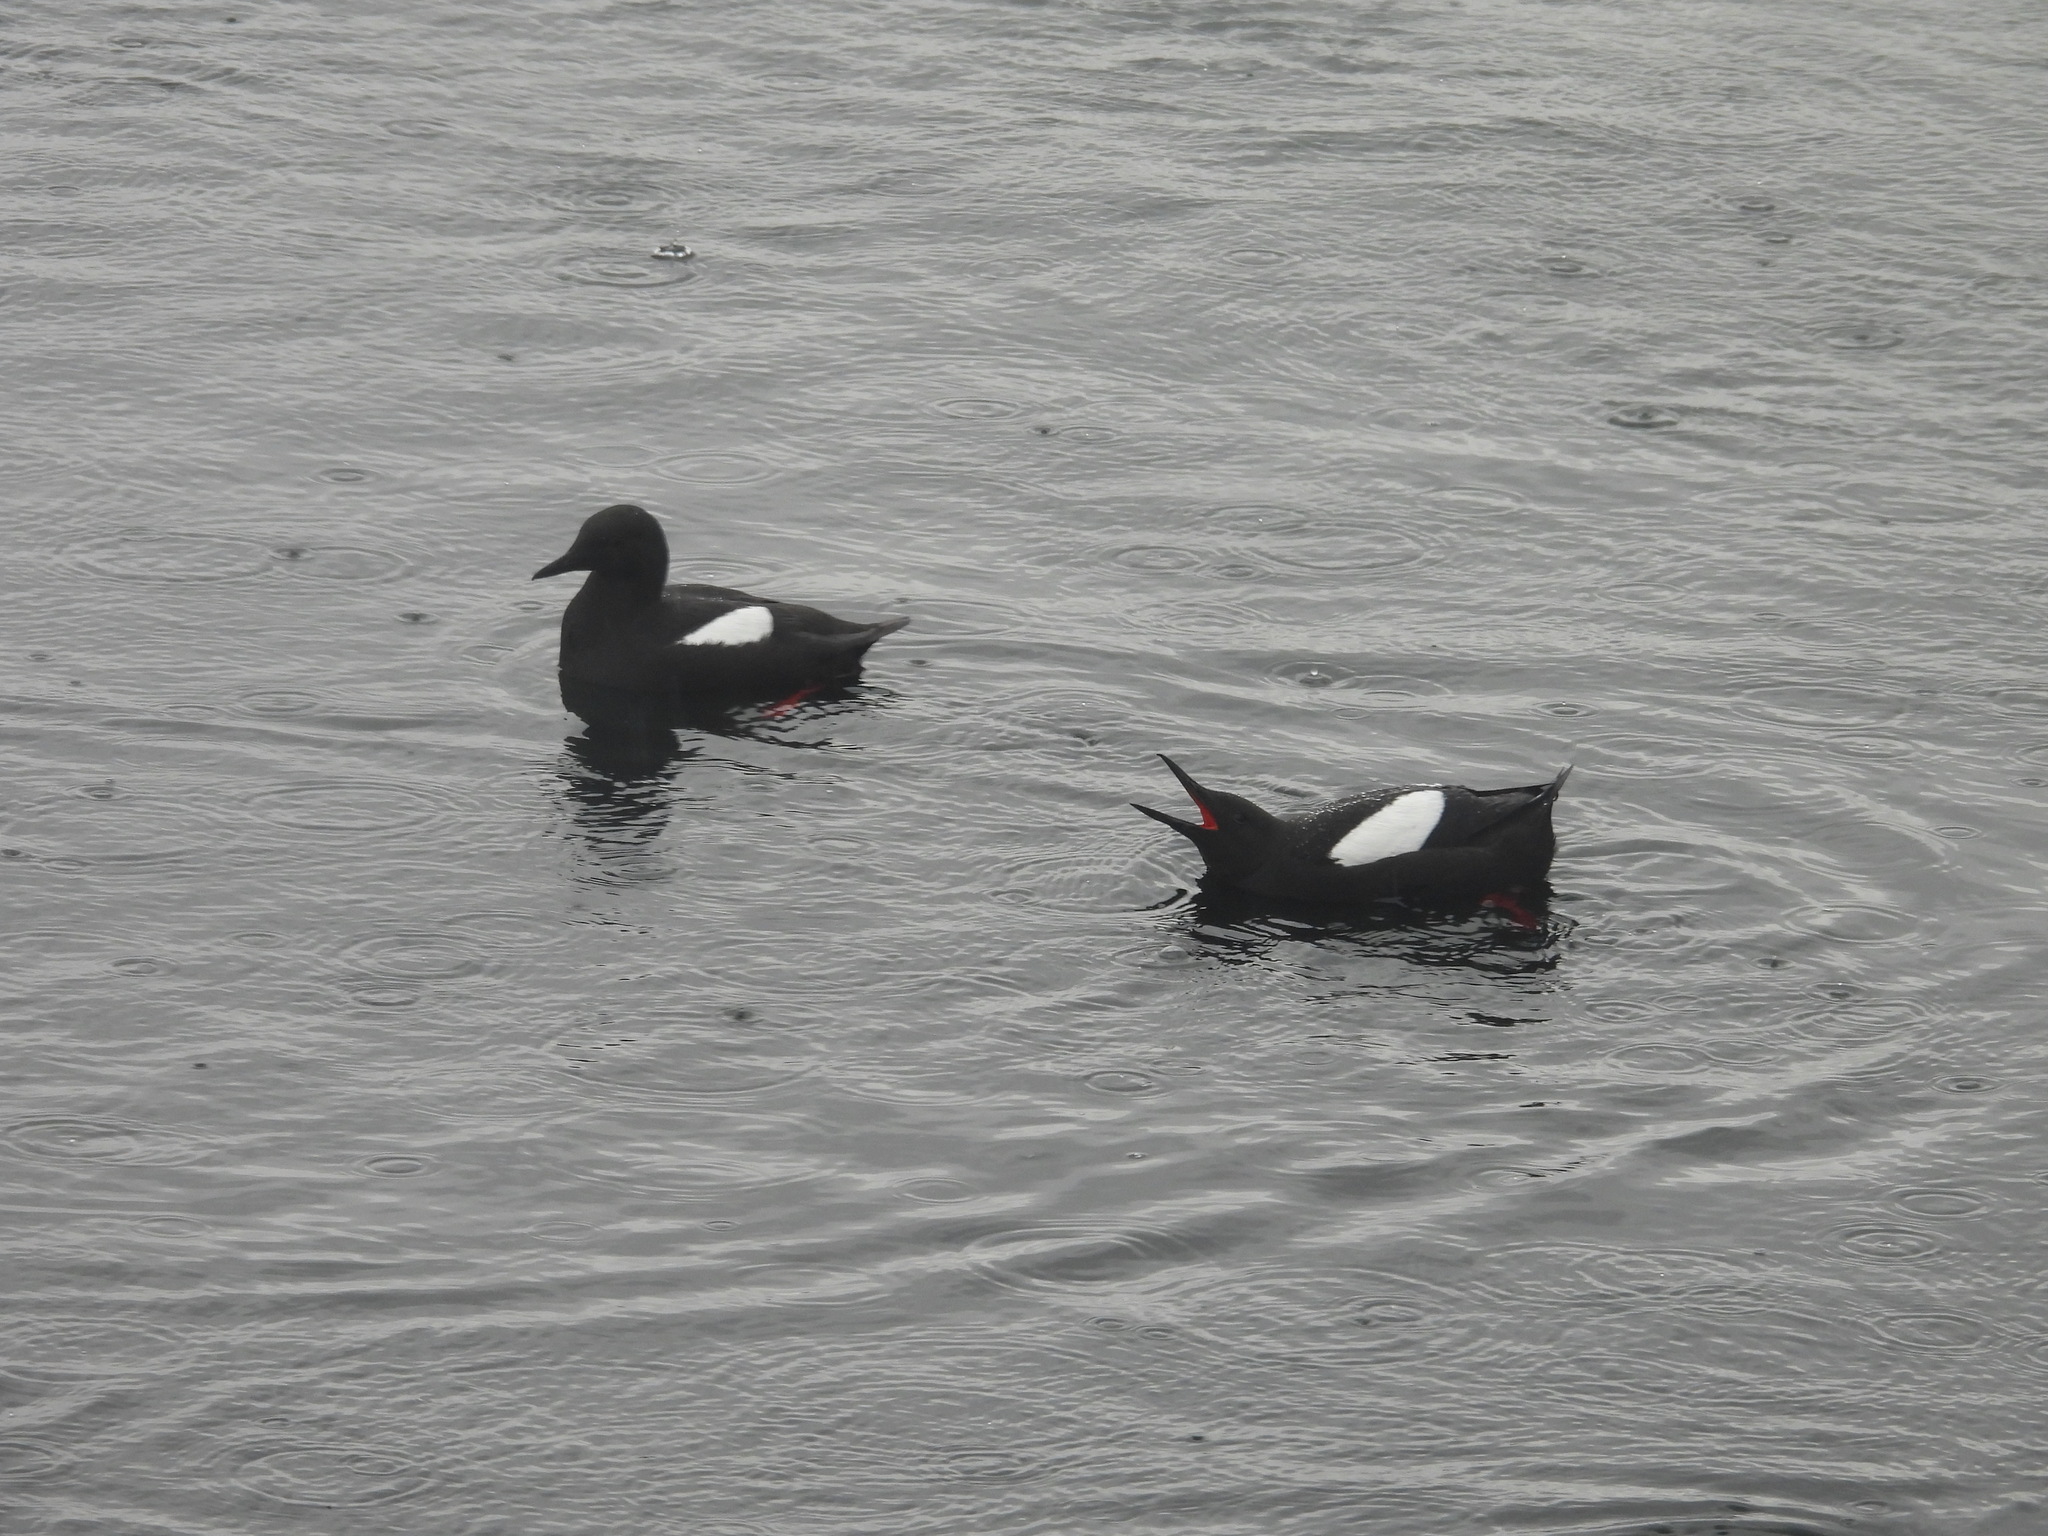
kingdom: Animalia
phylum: Chordata
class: Aves
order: Charadriiformes
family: Alcidae
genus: Cepphus
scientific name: Cepphus grylle
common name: Black guillemot
